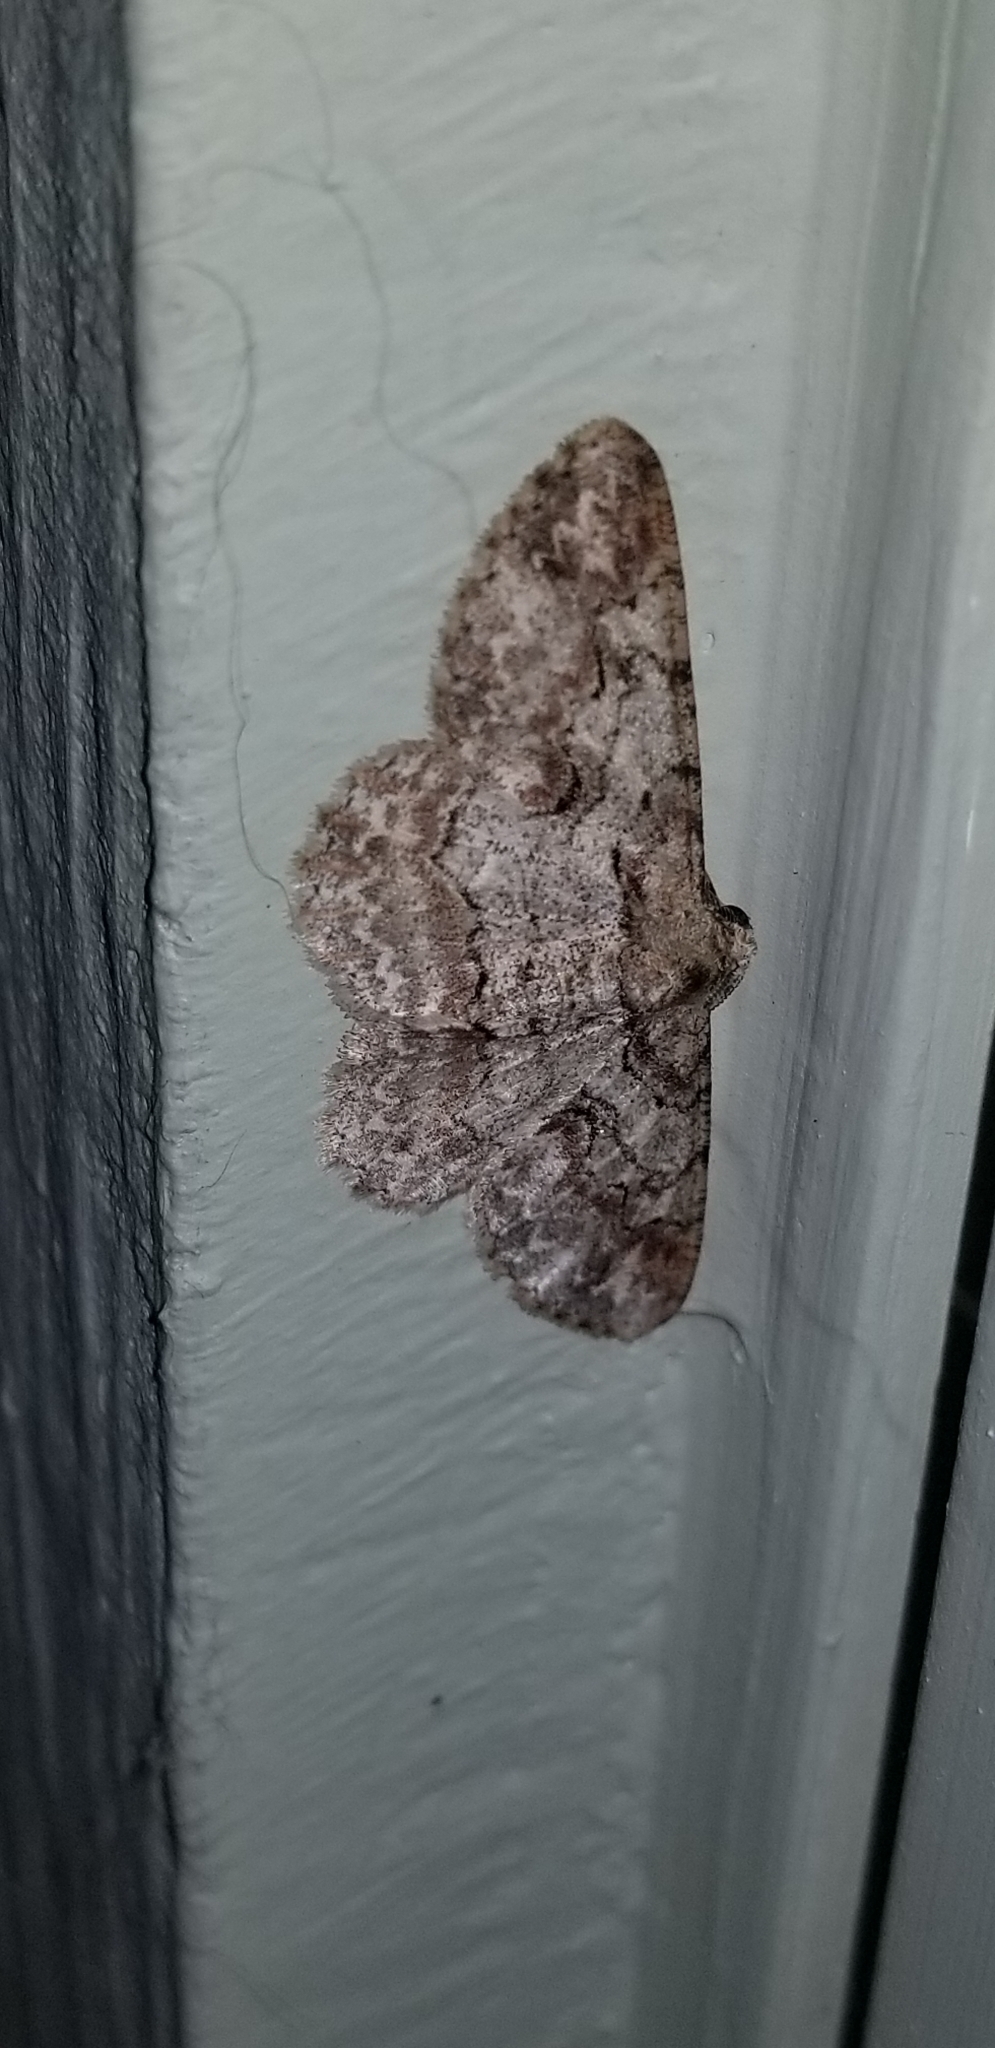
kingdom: Animalia
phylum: Arthropoda
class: Insecta
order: Lepidoptera
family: Geometridae
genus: Iridopsis
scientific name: Iridopsis defectaria
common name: Brown-shaded gray
